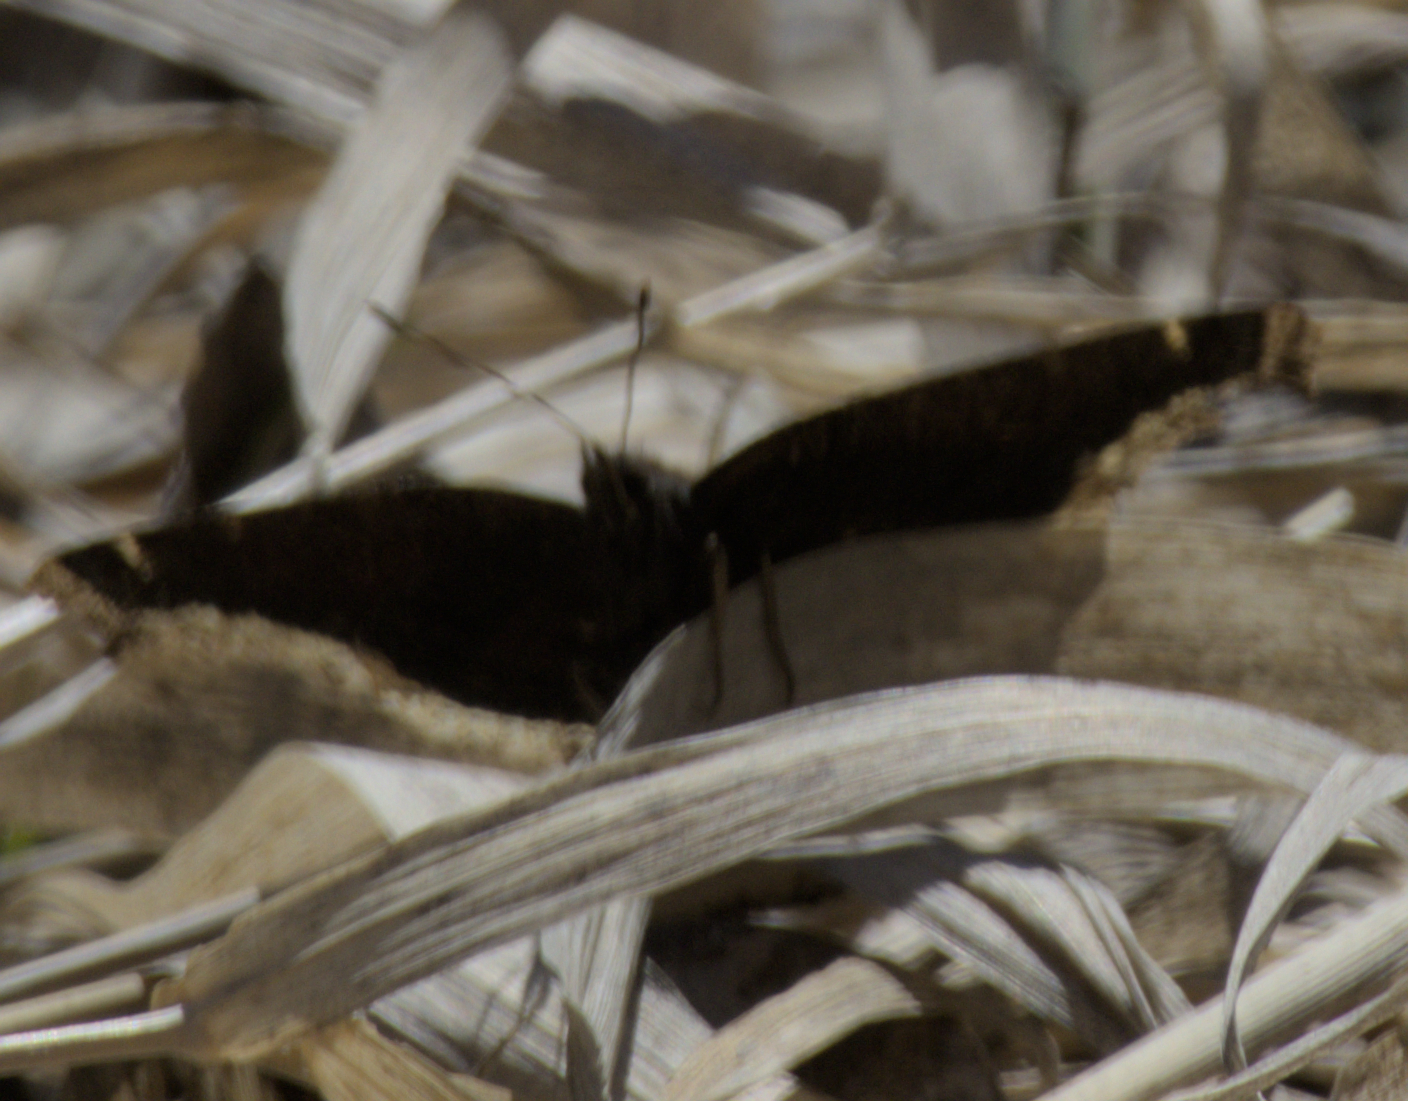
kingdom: Animalia
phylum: Arthropoda
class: Insecta
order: Lepidoptera
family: Nymphalidae
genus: Nymphalis
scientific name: Nymphalis antiopa
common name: Camberwell beauty
